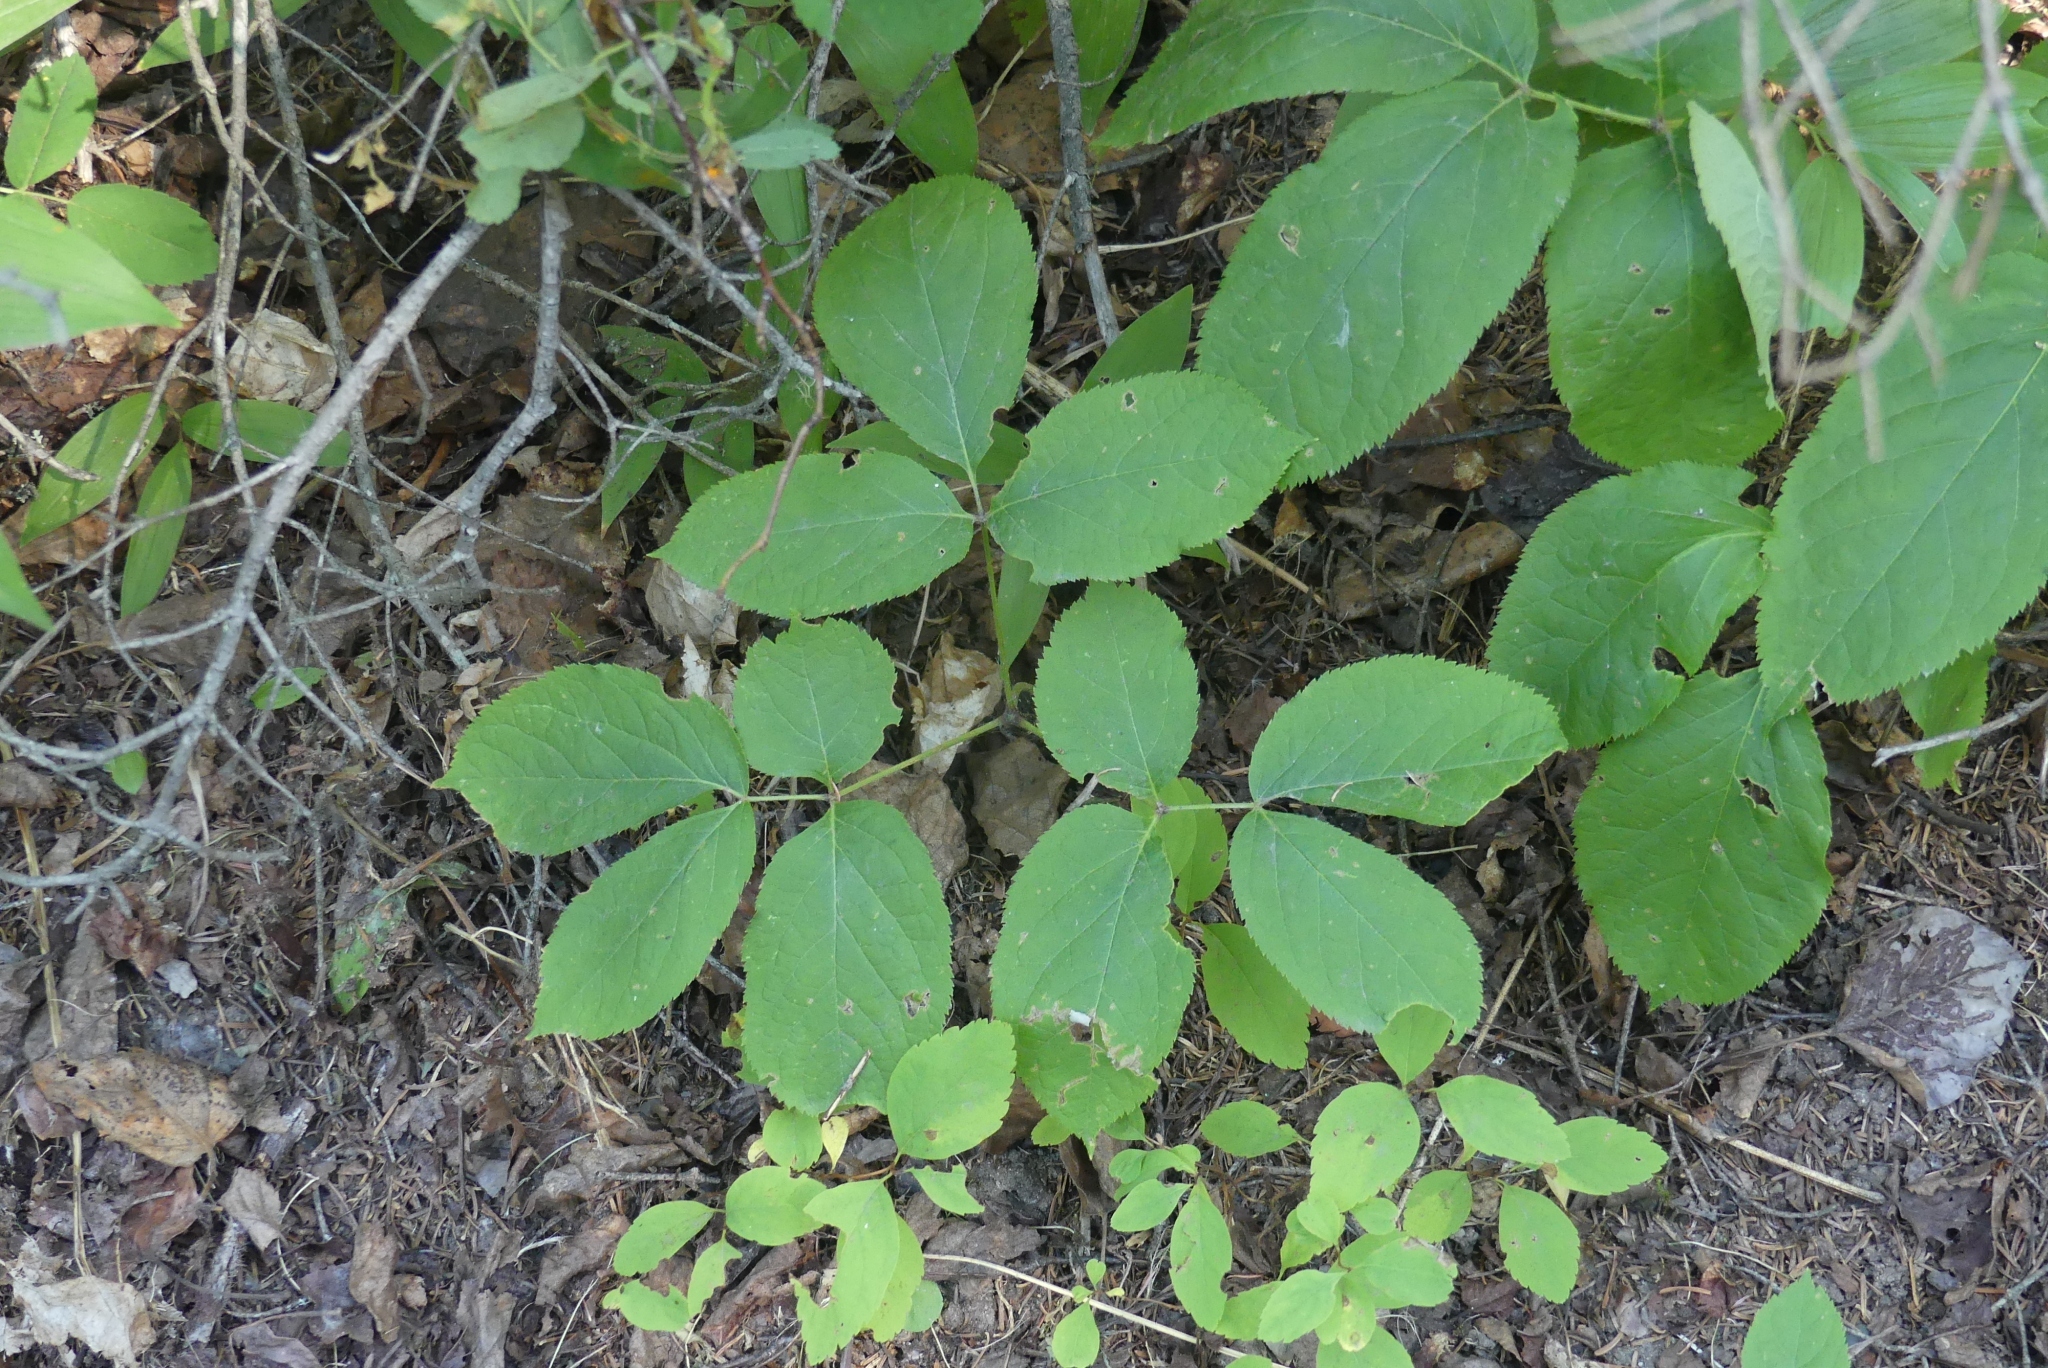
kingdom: Plantae
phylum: Tracheophyta
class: Magnoliopsida
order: Apiales
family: Araliaceae
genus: Aralia
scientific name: Aralia nudicaulis
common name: Wild sarsaparilla
